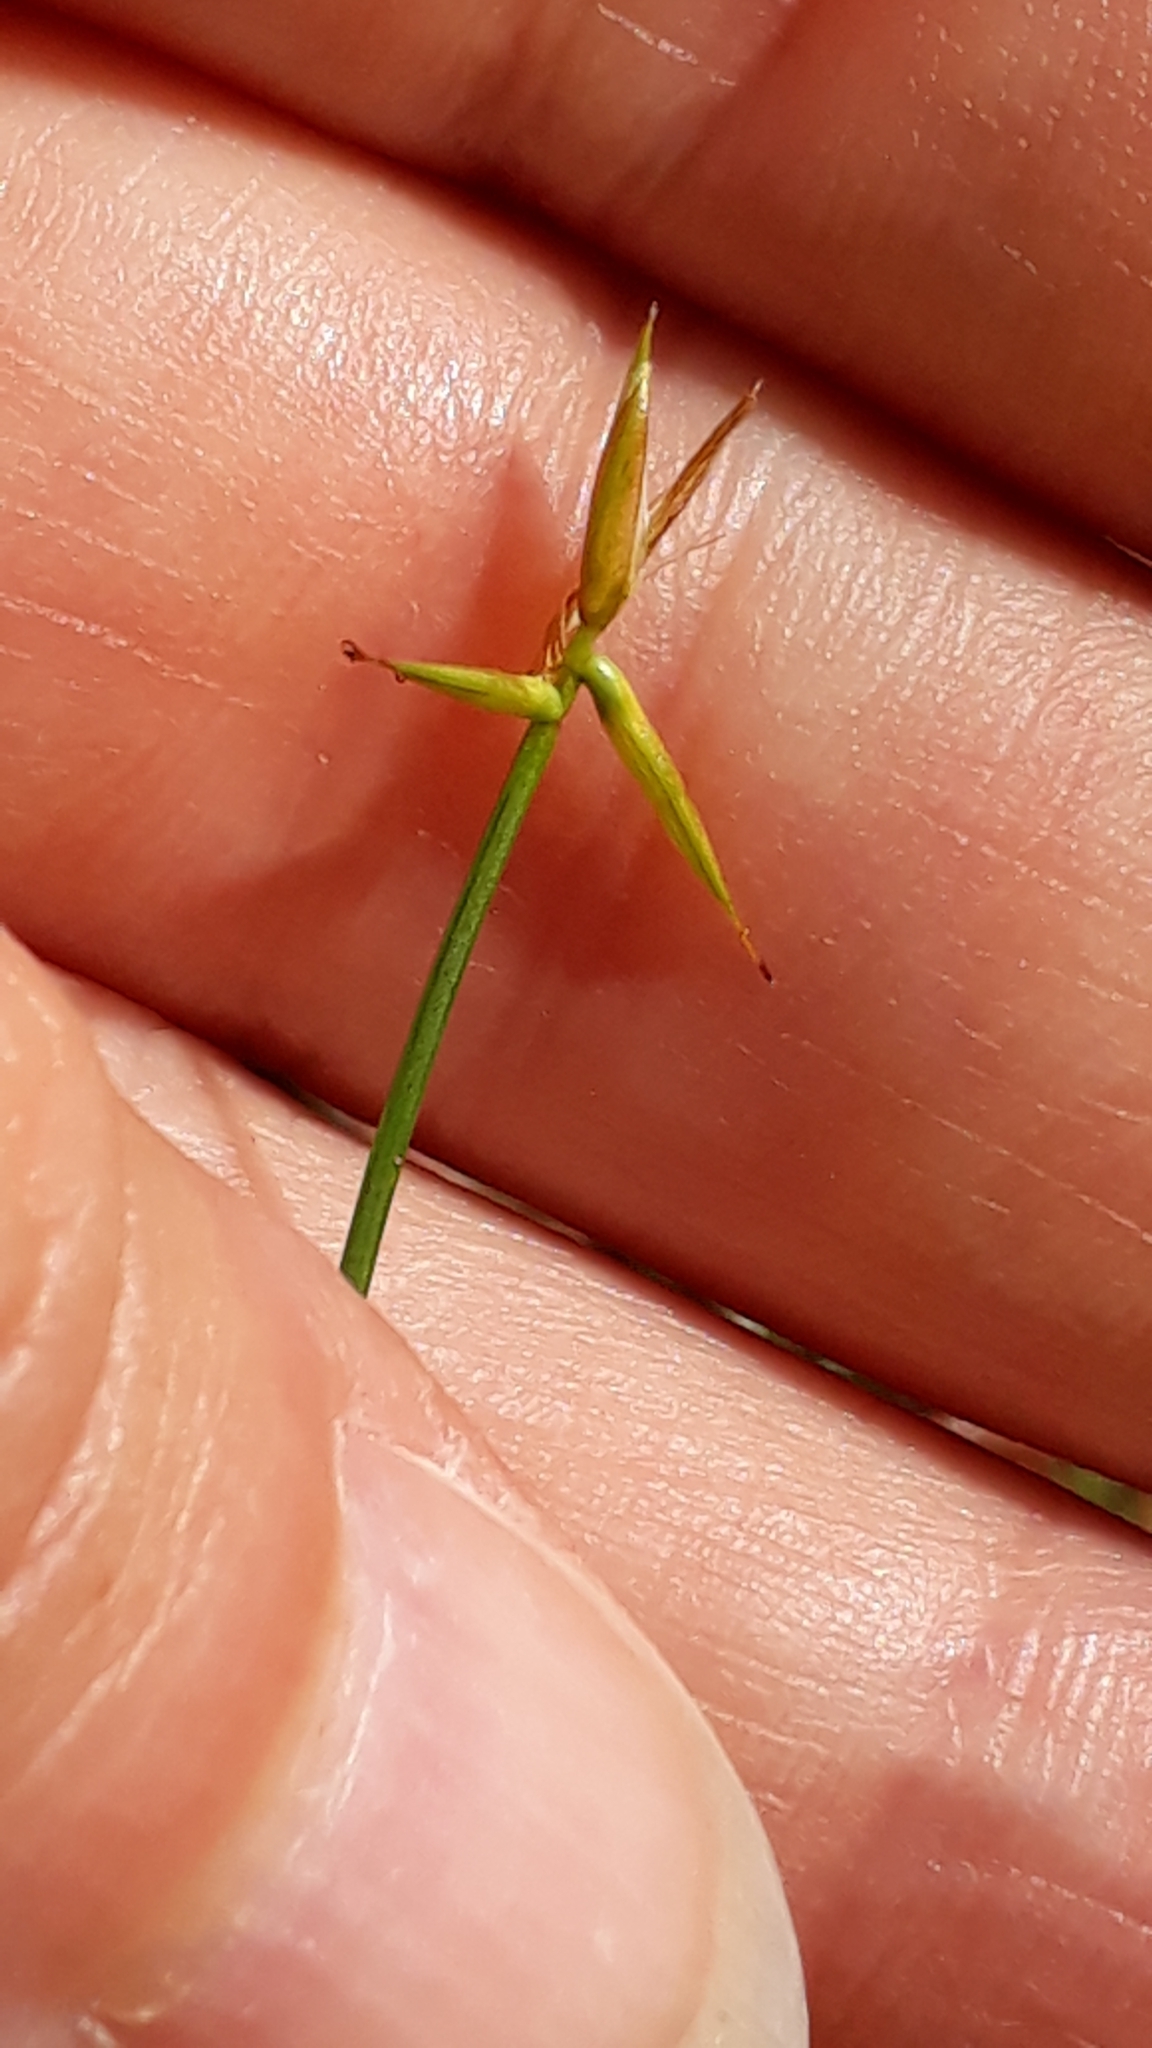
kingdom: Plantae
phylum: Tracheophyta
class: Liliopsida
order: Poales
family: Cyperaceae
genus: Carex
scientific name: Carex pauciflora
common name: Few-flowered sedge
